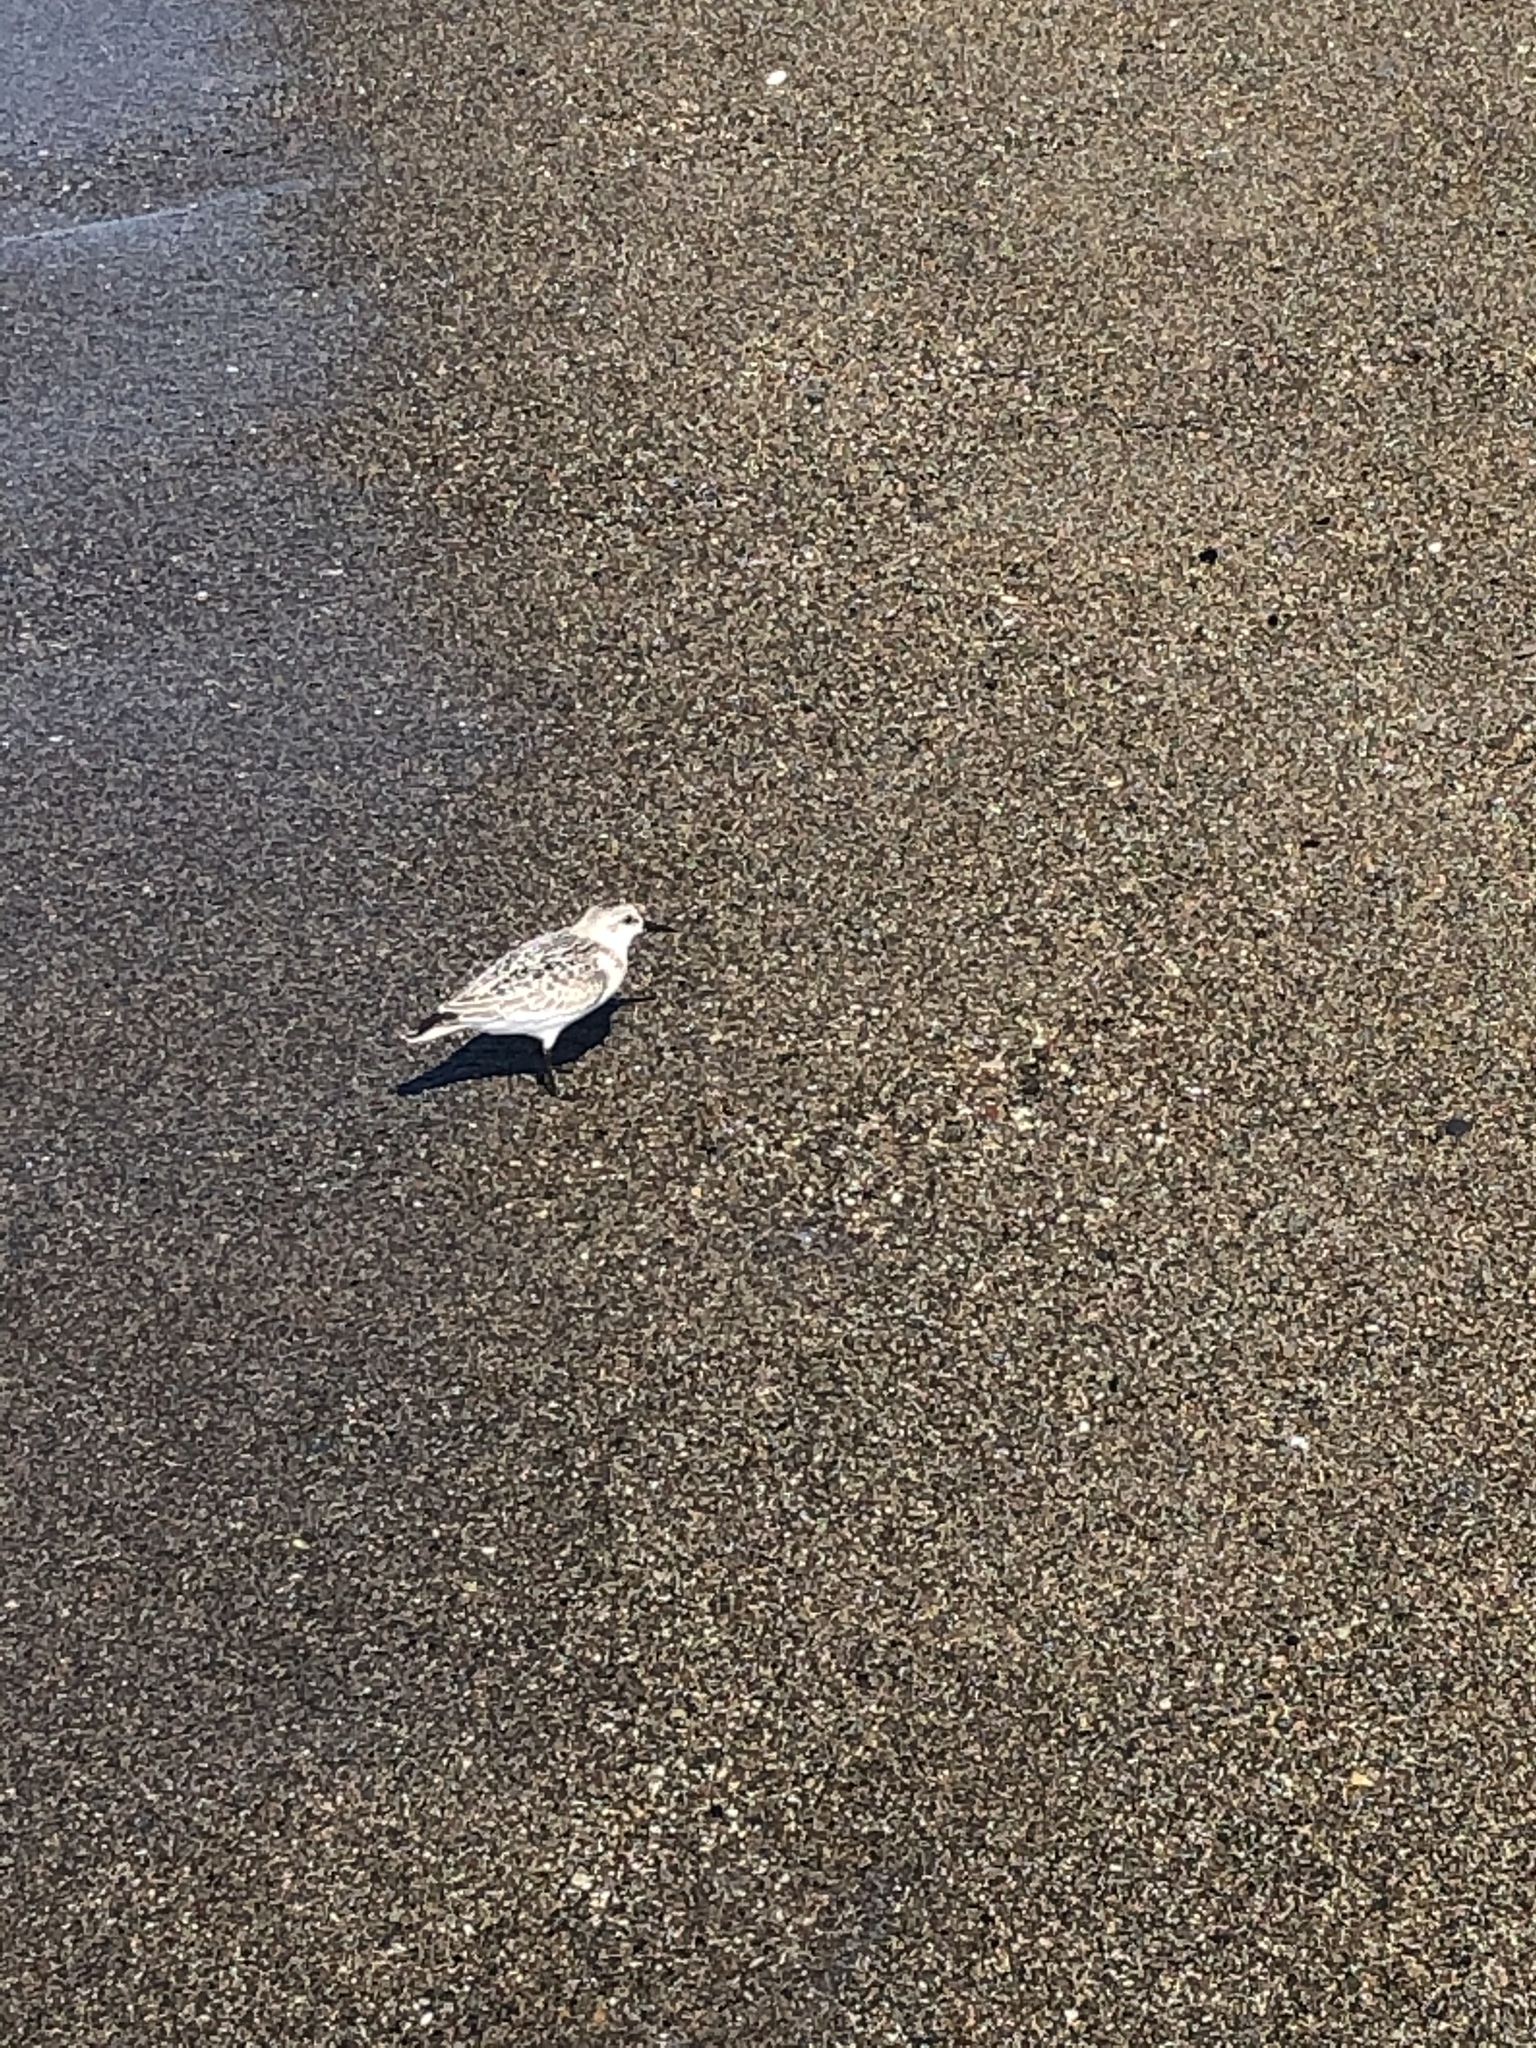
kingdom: Animalia
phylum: Chordata
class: Aves
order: Charadriiformes
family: Scolopacidae
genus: Calidris
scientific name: Calidris alba
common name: Sanderling
